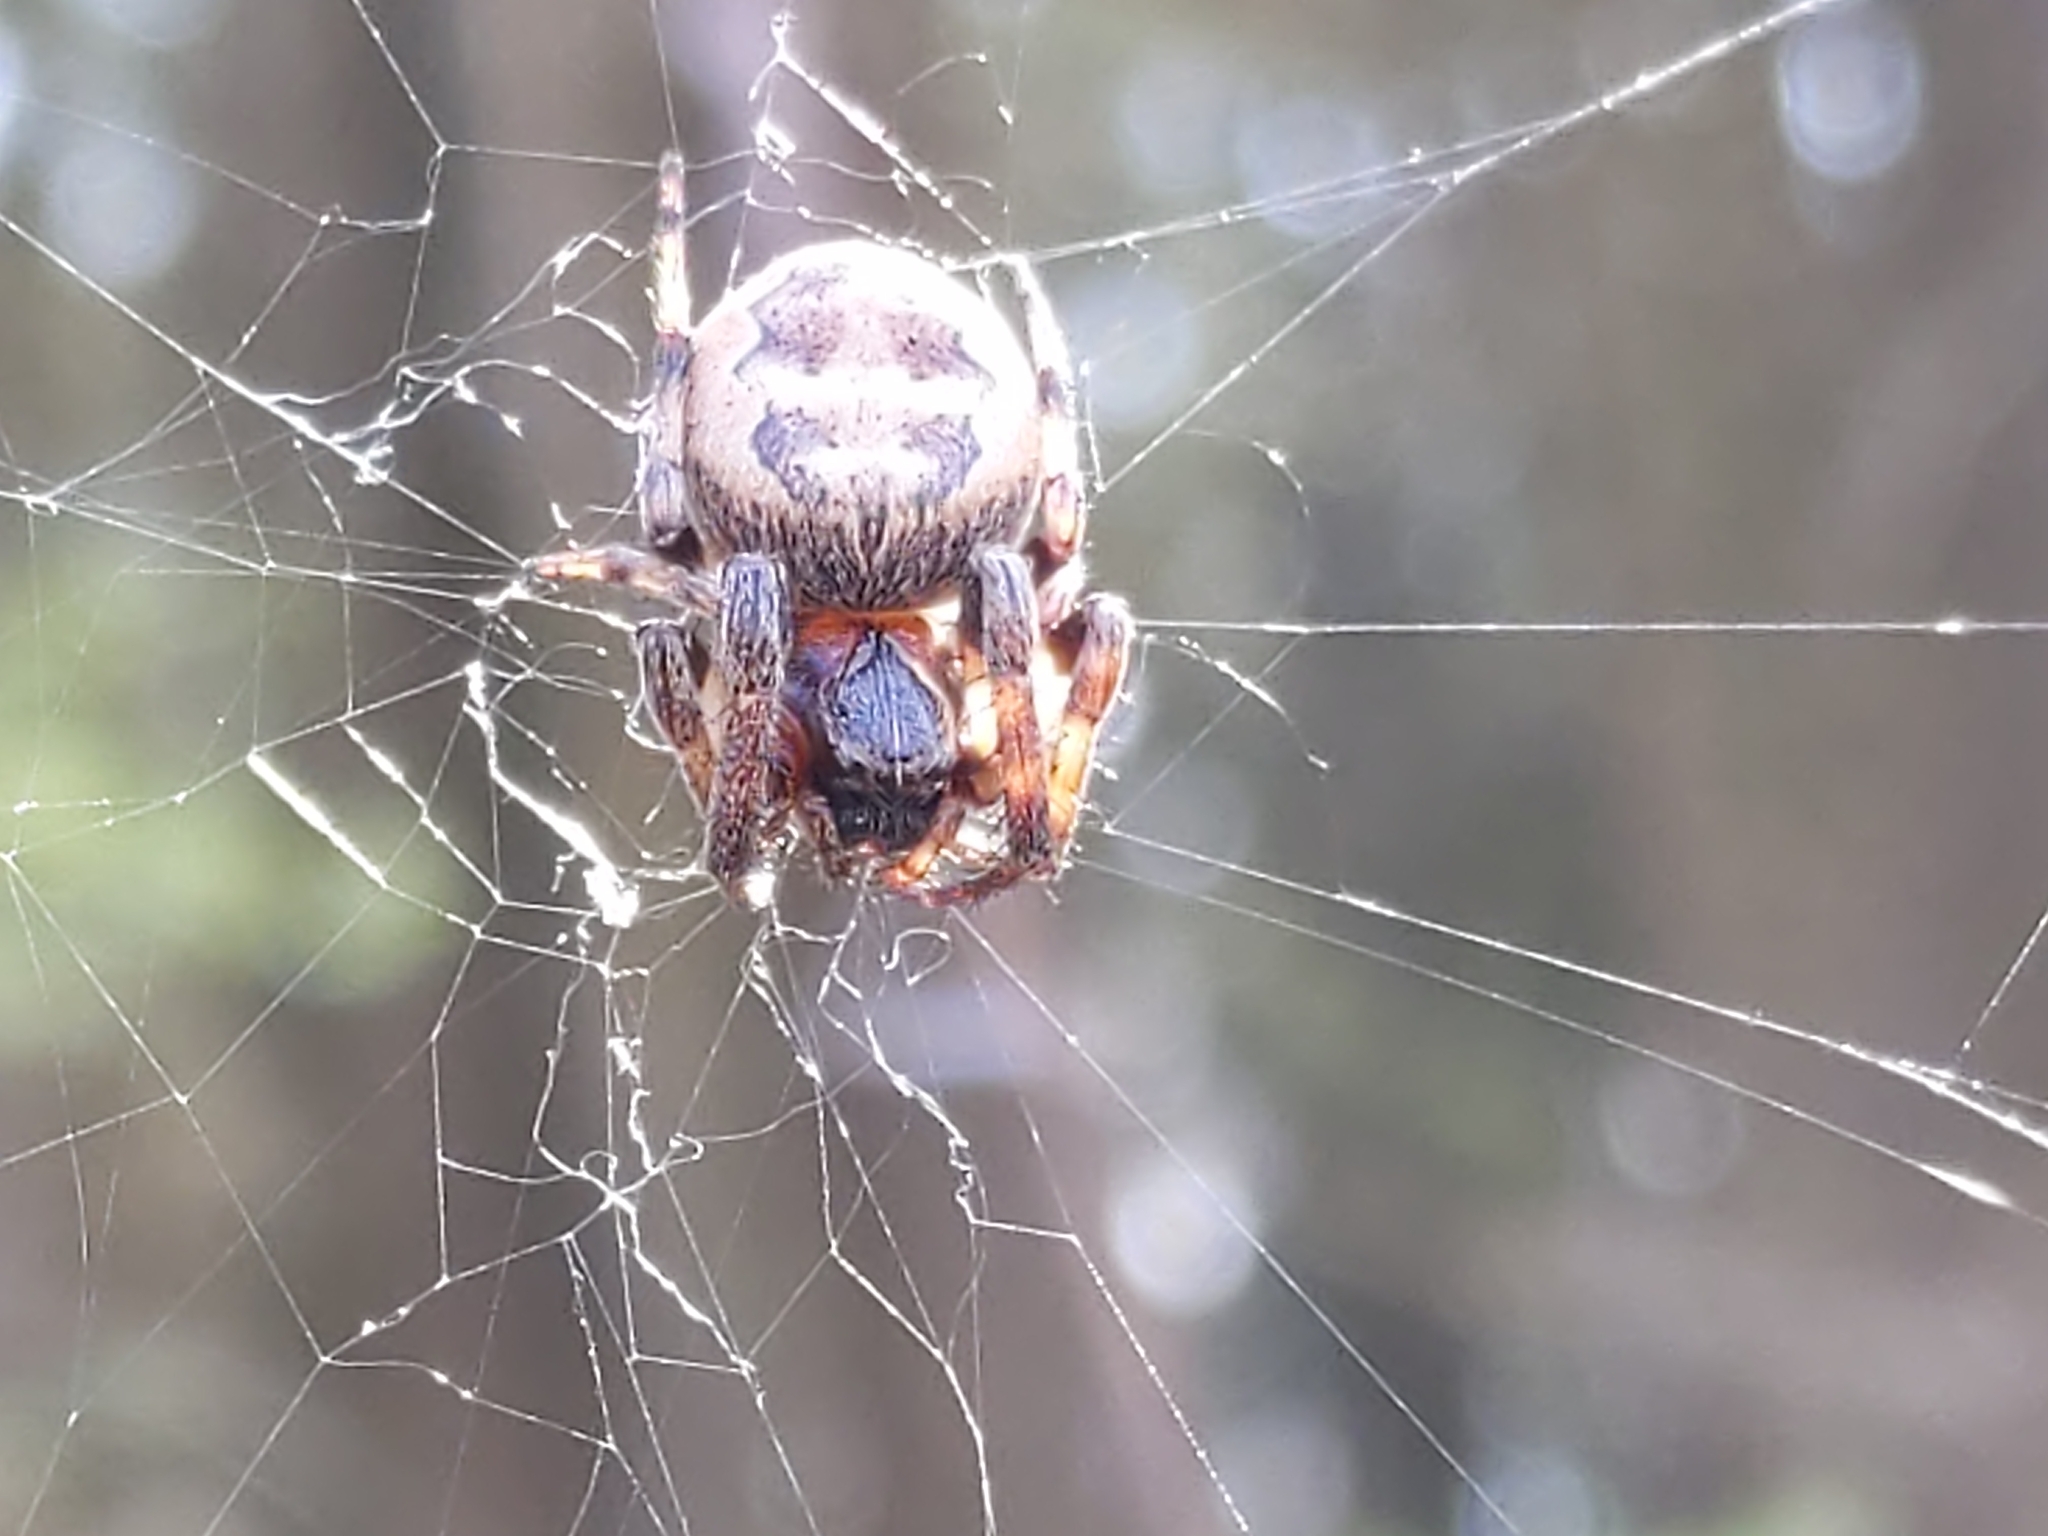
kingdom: Animalia
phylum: Arthropoda
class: Arachnida
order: Araneae
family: Araneidae
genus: Larinioides
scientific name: Larinioides cornutus
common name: Furrow orbweaver
